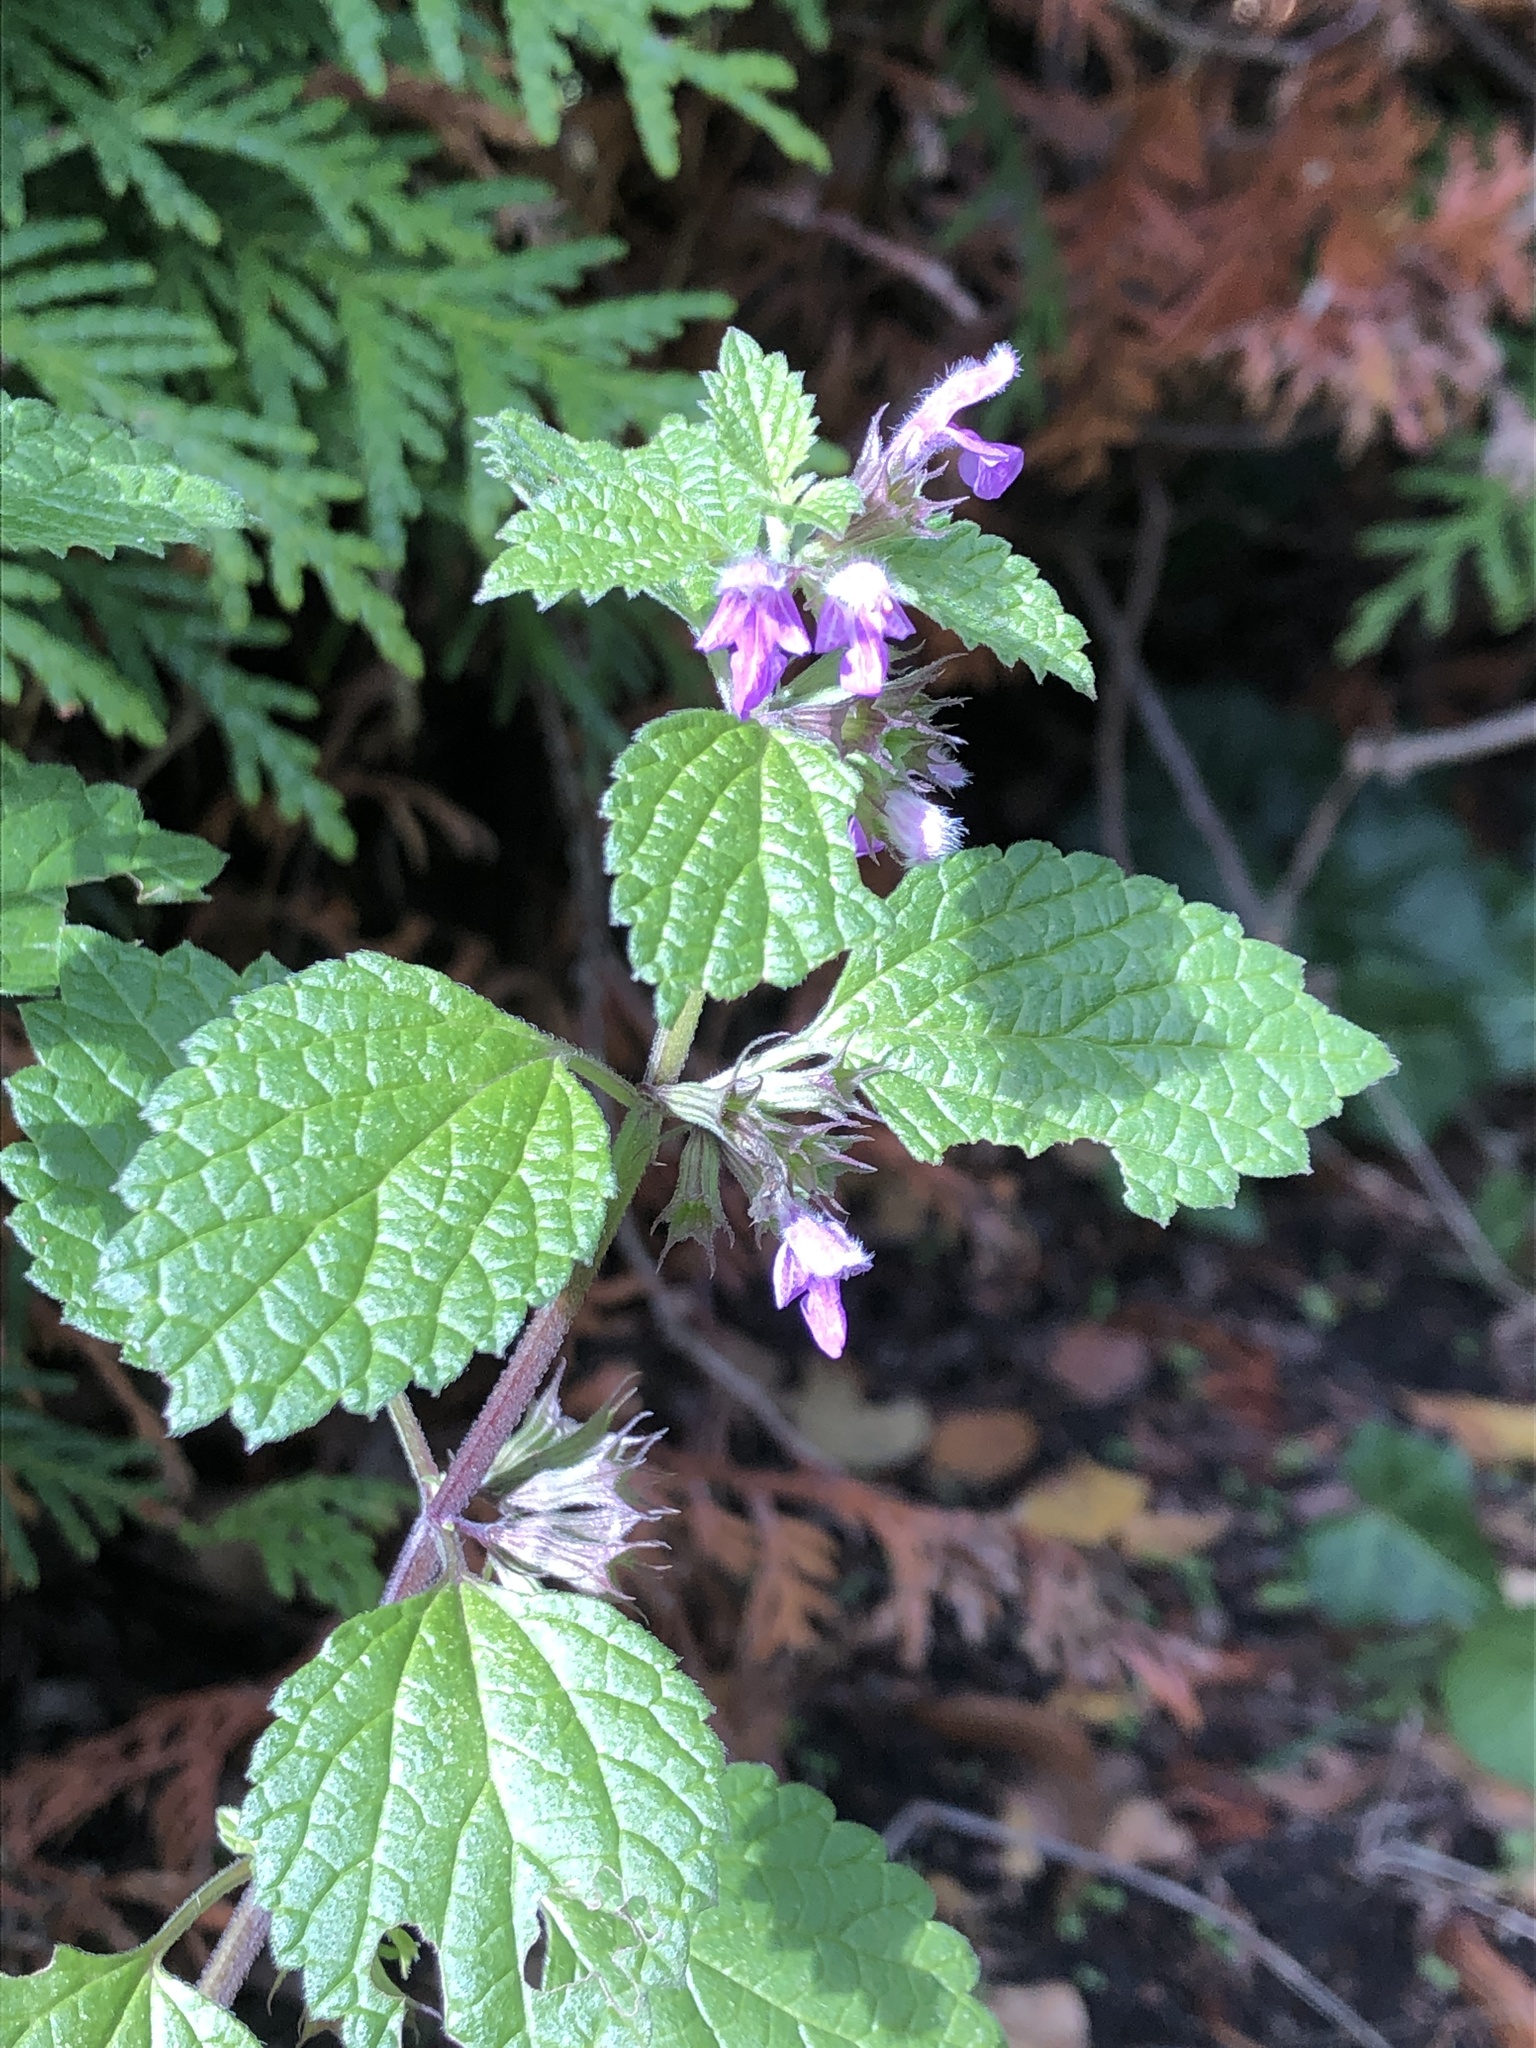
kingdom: Plantae
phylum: Tracheophyta
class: Magnoliopsida
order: Lamiales
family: Lamiaceae
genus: Ballota
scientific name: Ballota nigra
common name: Black horehound
